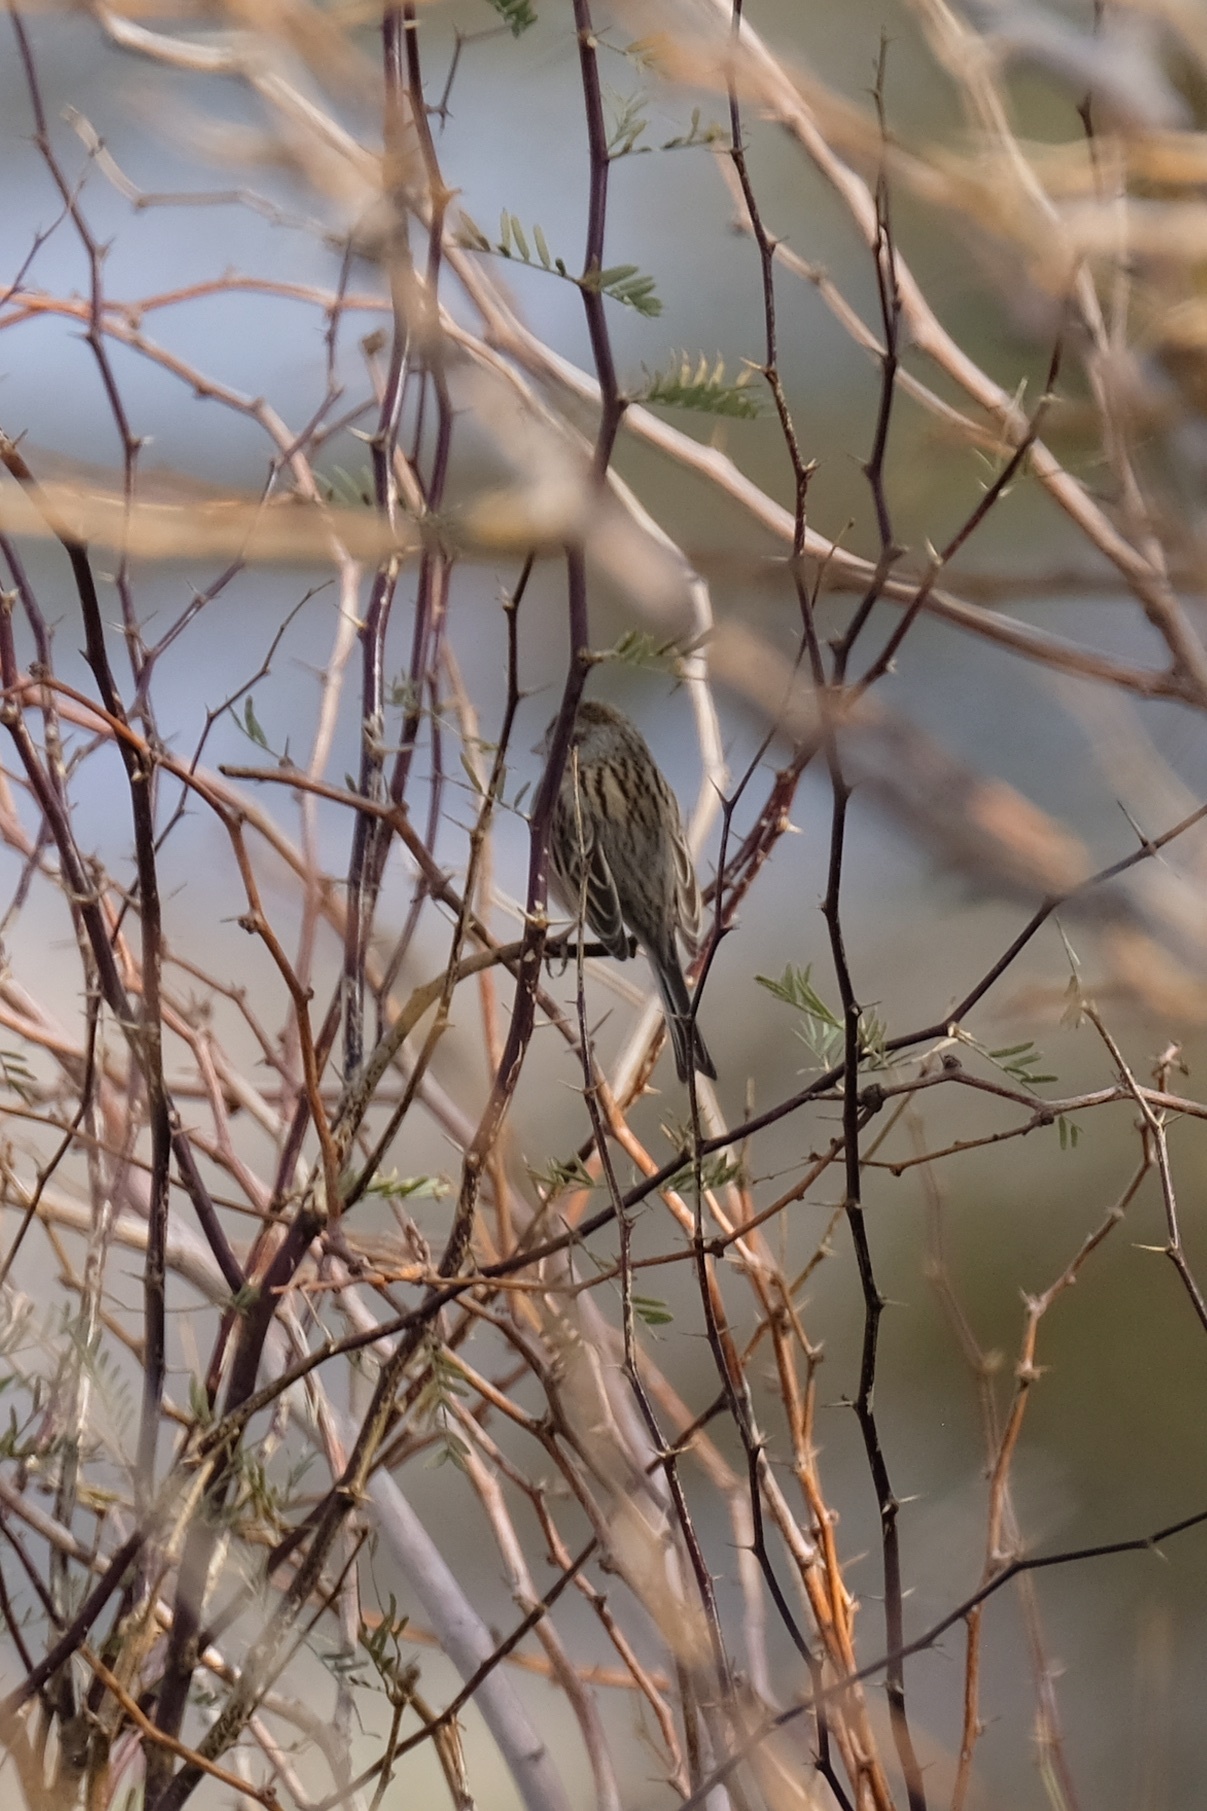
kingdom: Animalia
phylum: Chordata
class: Aves
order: Passeriformes
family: Passerellidae
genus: Spizella
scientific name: Spizella breweri
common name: Brewer's sparrow
